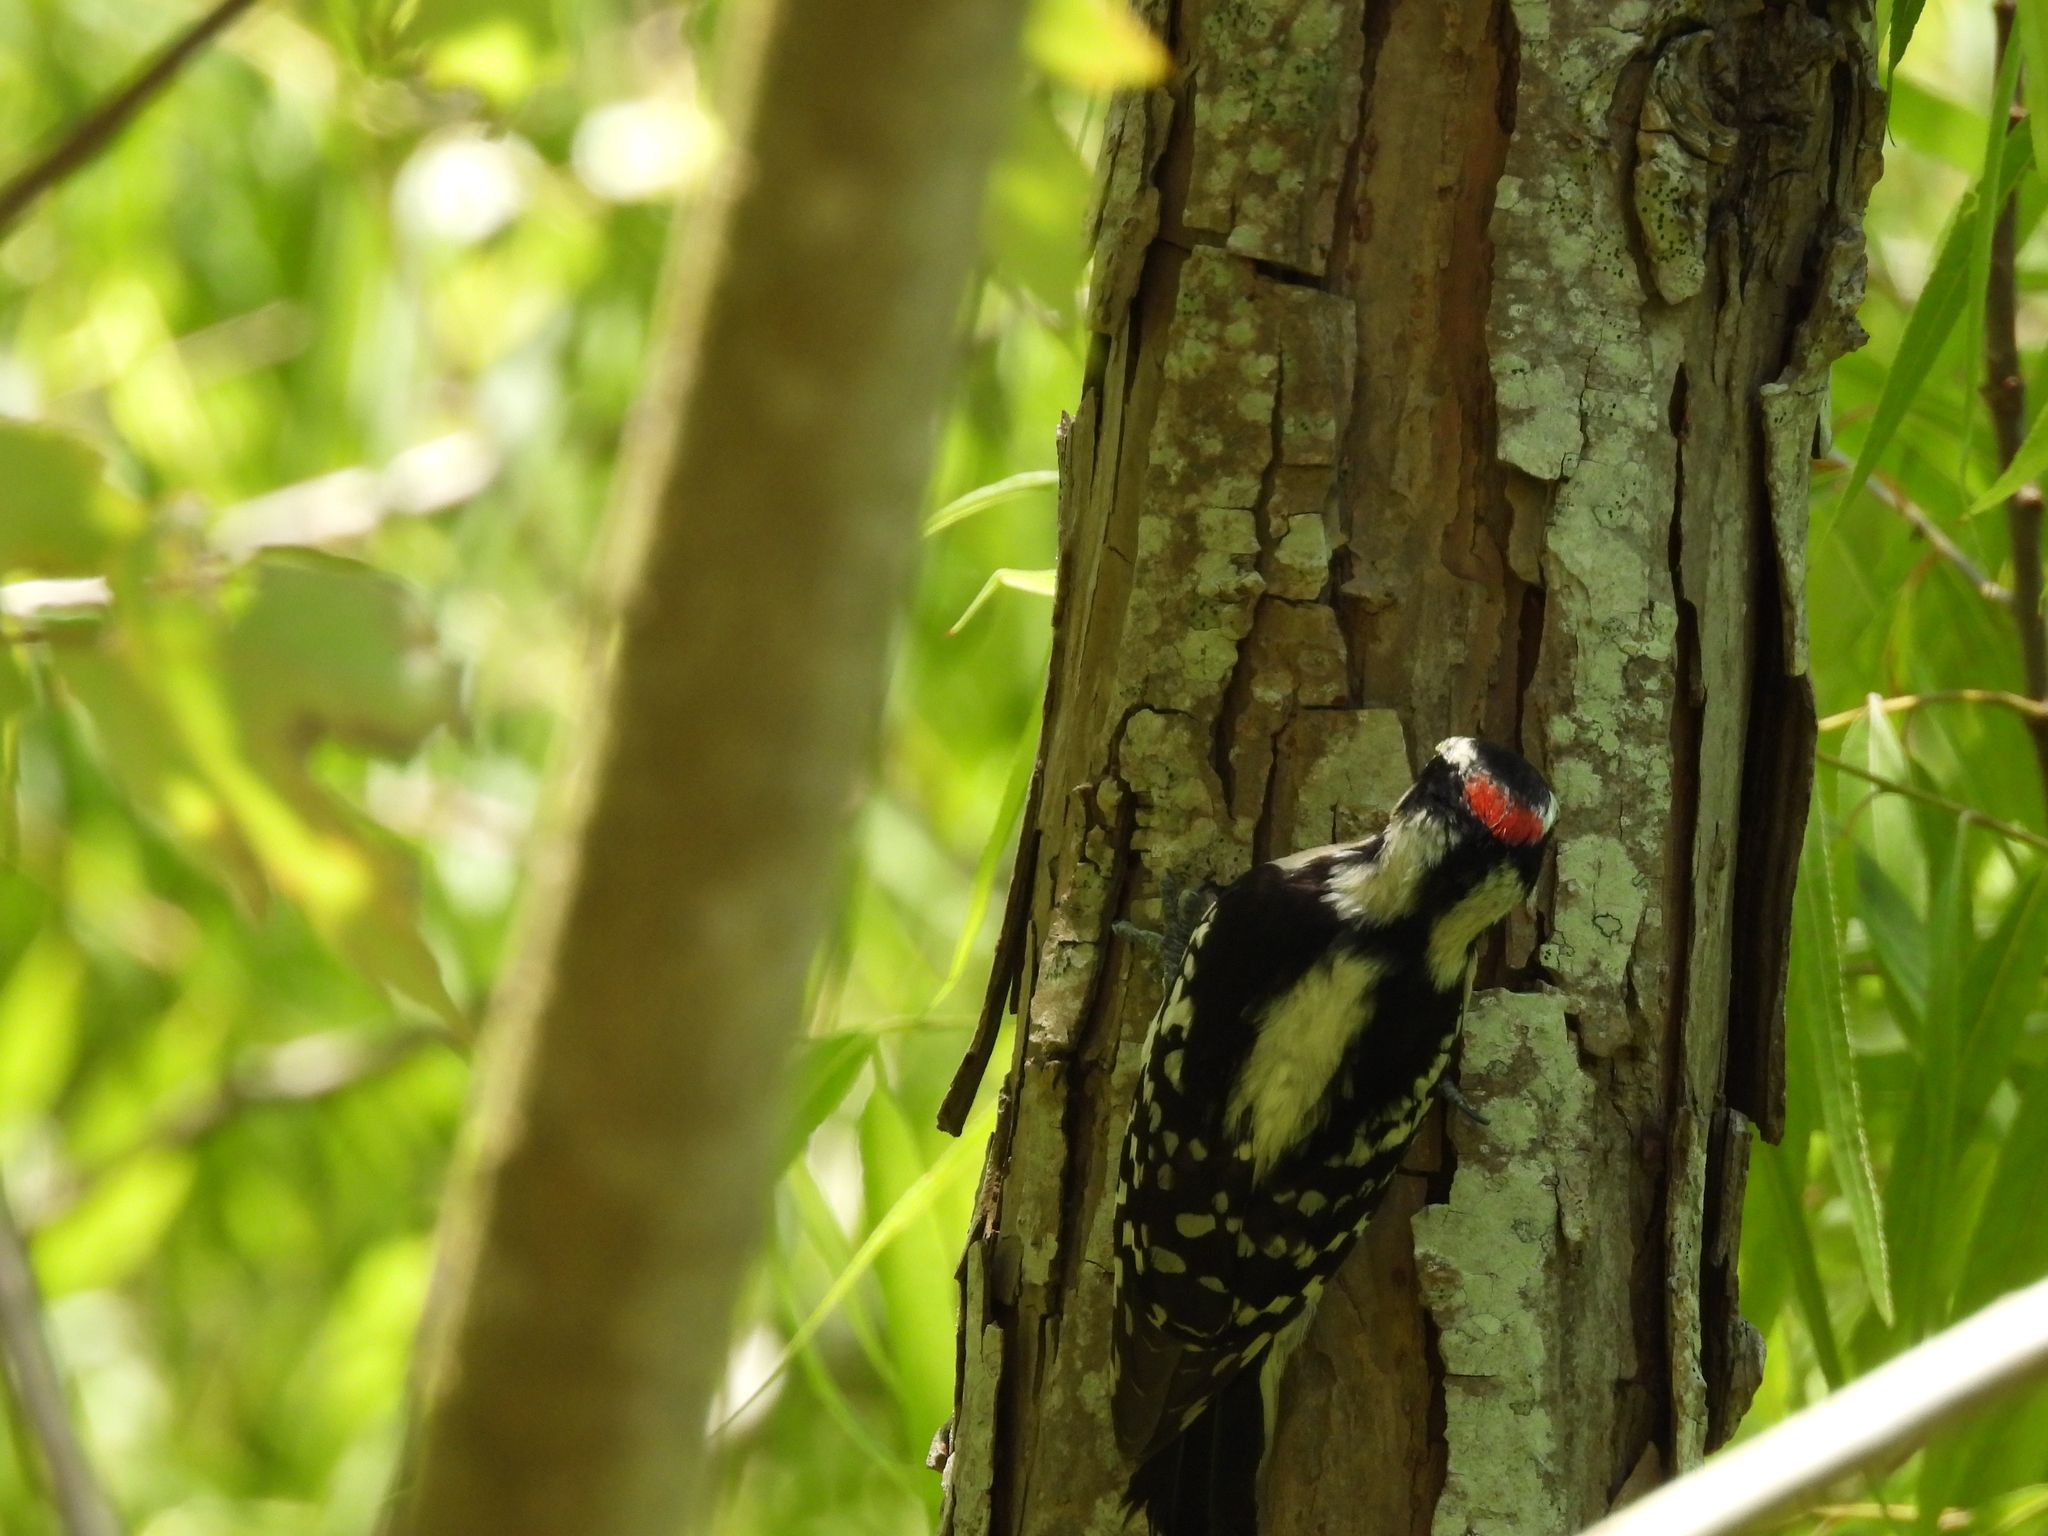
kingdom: Animalia
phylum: Chordata
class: Aves
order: Piciformes
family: Picidae
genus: Dryobates
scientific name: Dryobates pubescens
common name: Downy woodpecker
